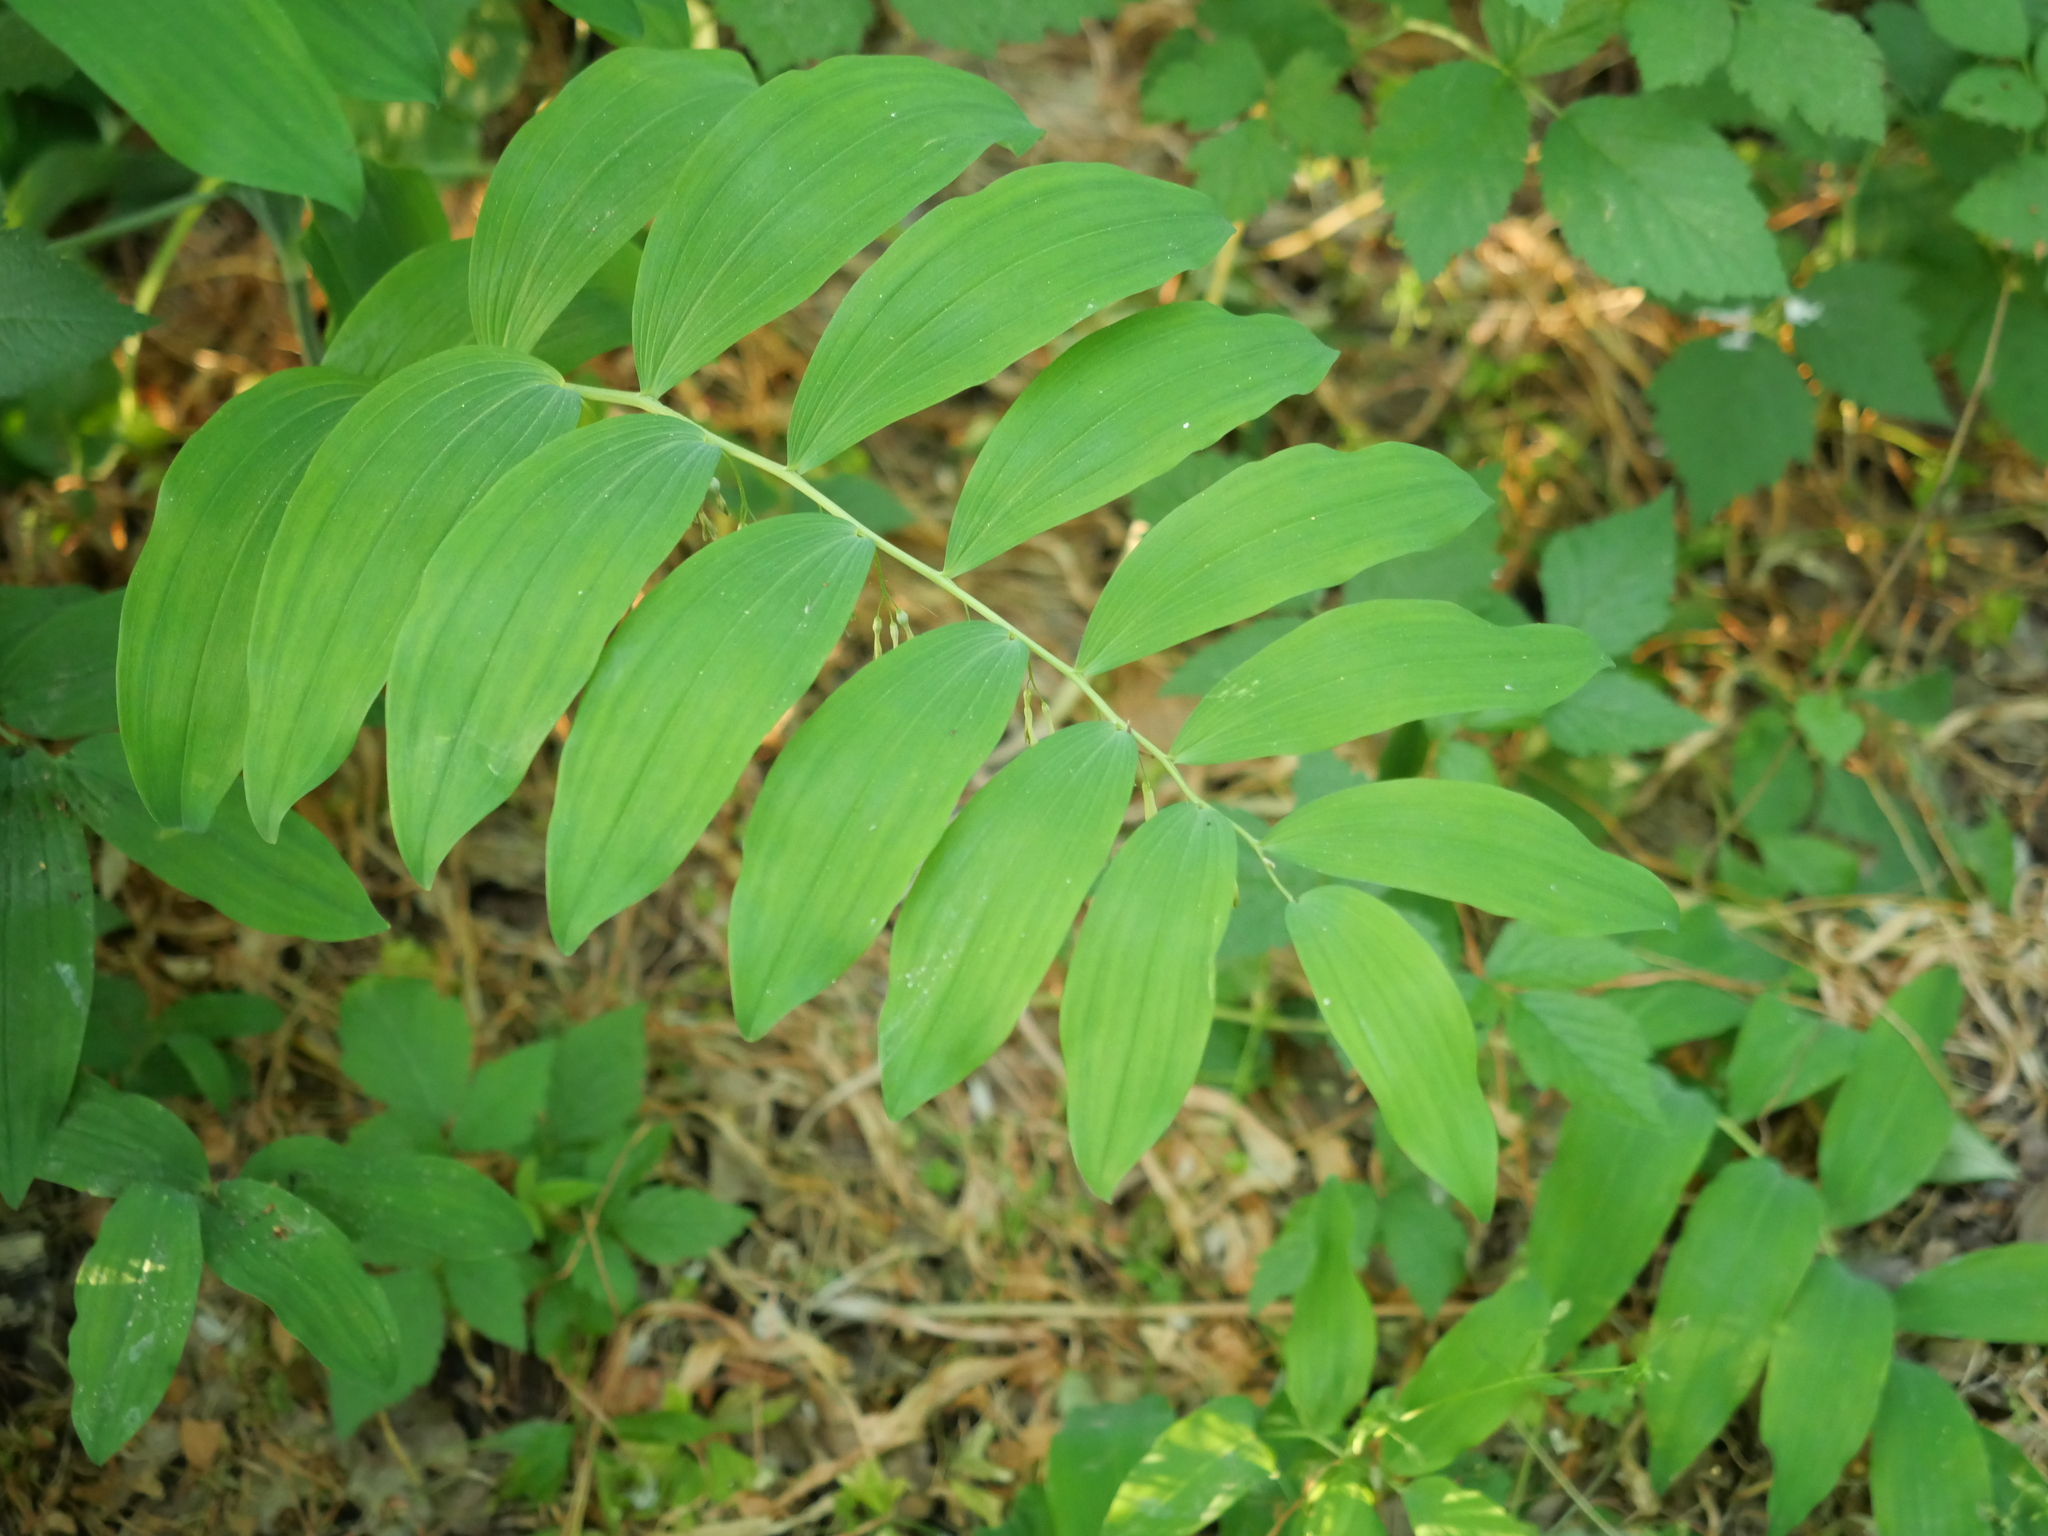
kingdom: Plantae
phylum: Tracheophyta
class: Liliopsida
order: Asparagales
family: Asparagaceae
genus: Polygonatum
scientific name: Polygonatum multiflorum
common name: Solomon's-seal
